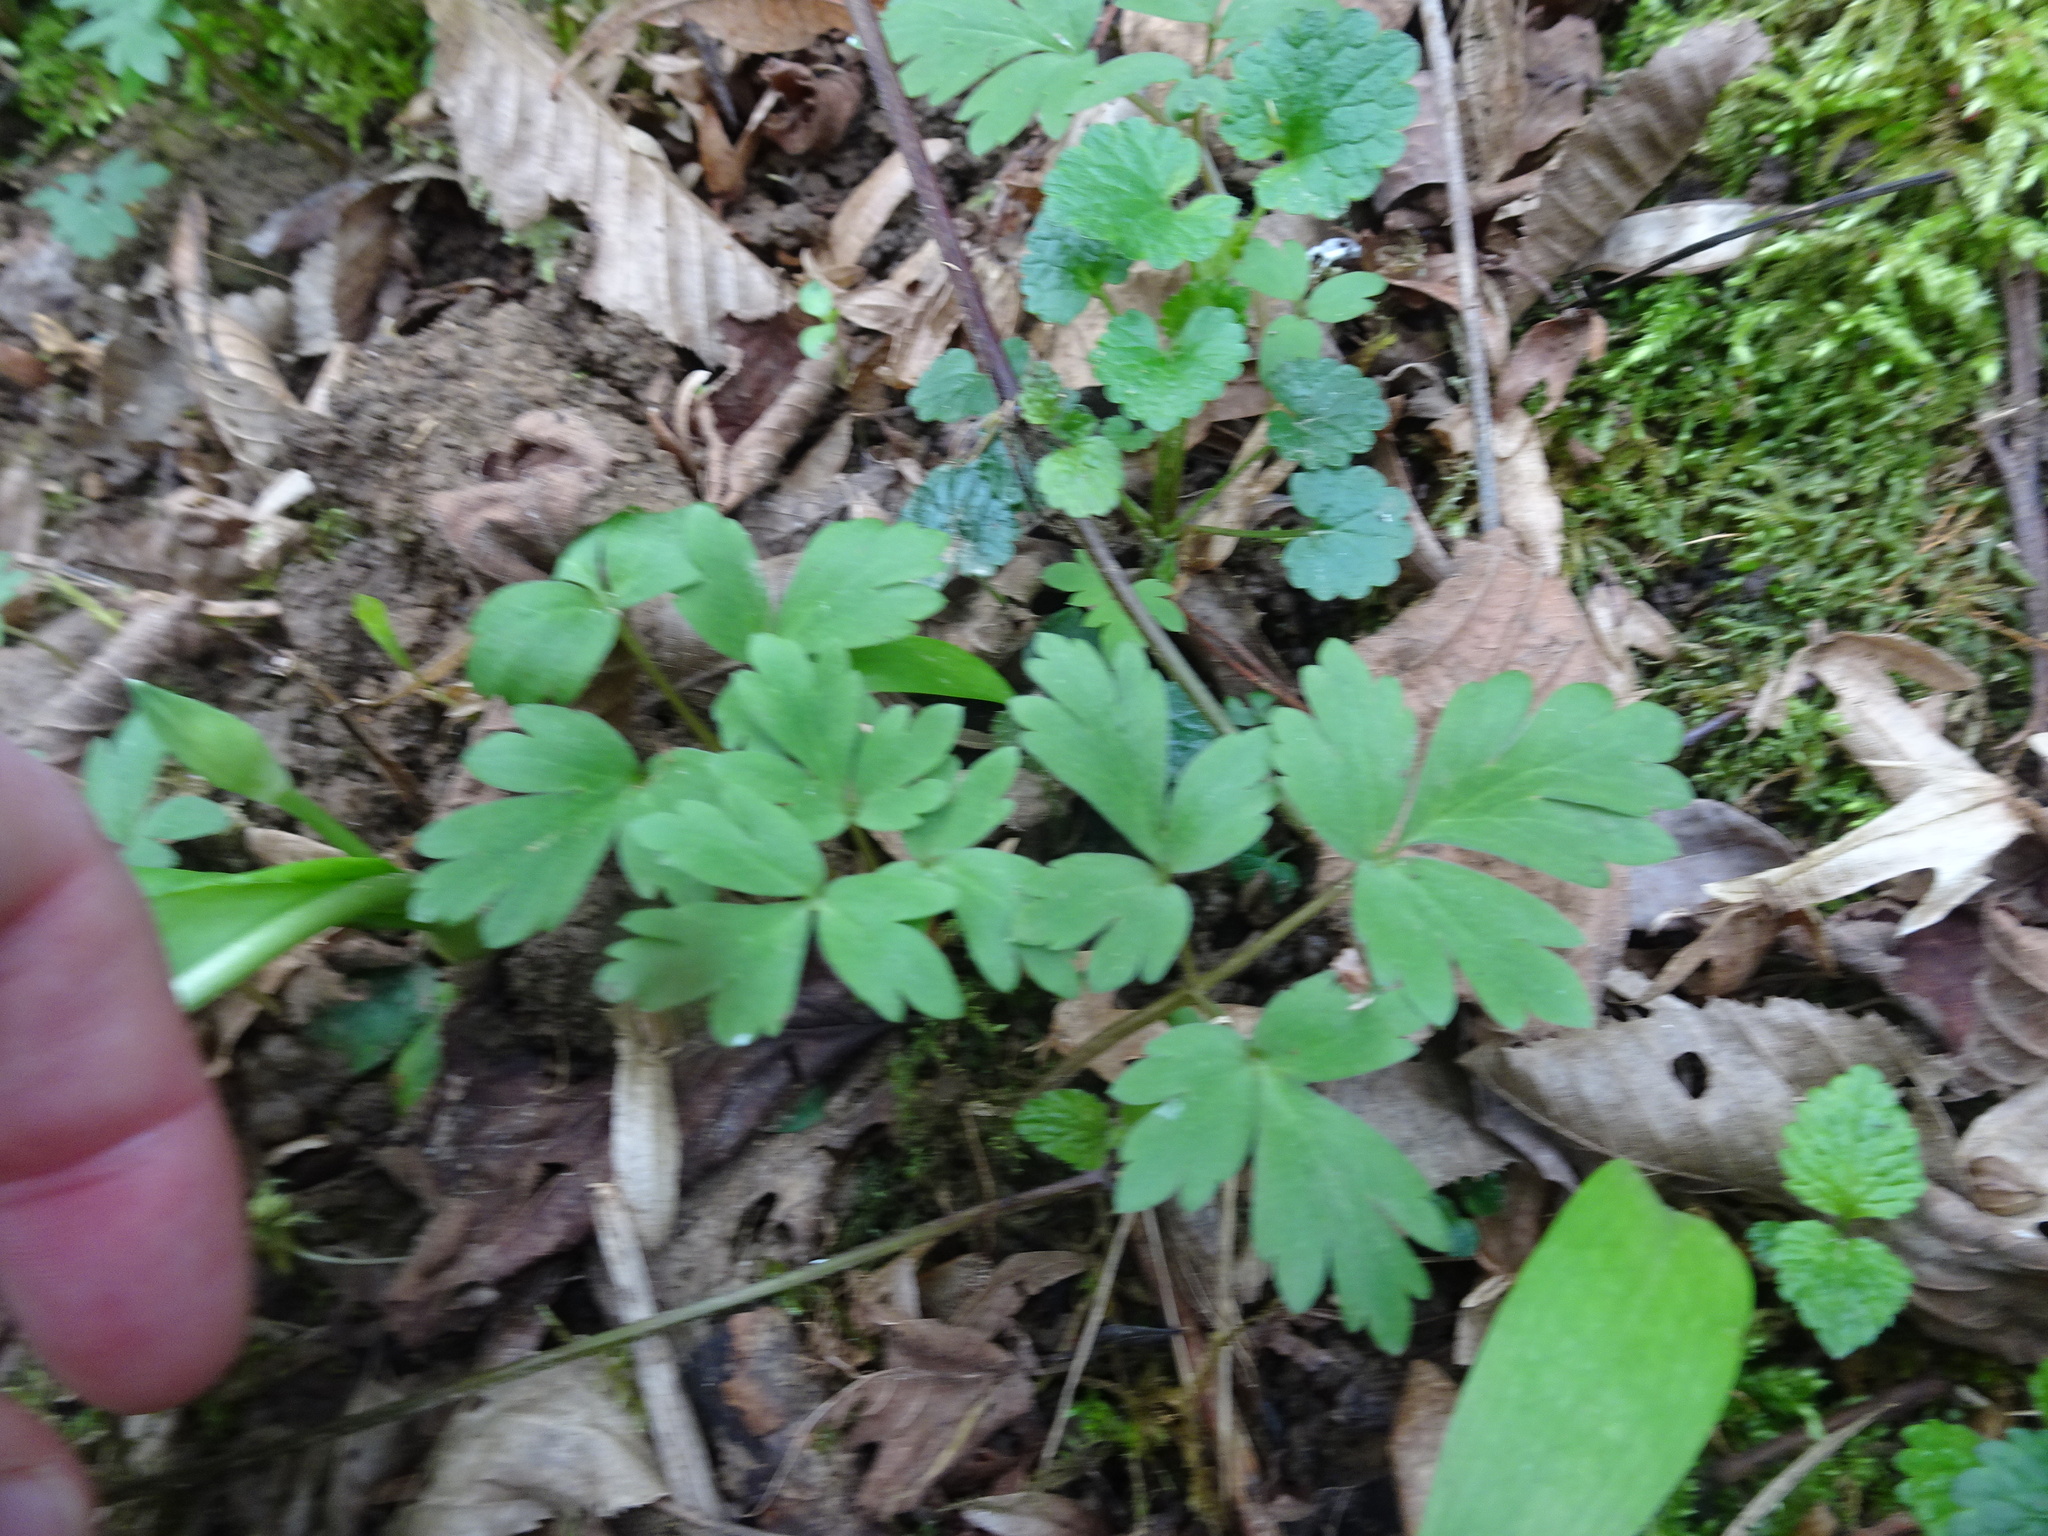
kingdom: Plantae
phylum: Tracheophyta
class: Magnoliopsida
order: Dipsacales
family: Viburnaceae
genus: Adoxa
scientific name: Adoxa moschatellina
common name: Moschatel
